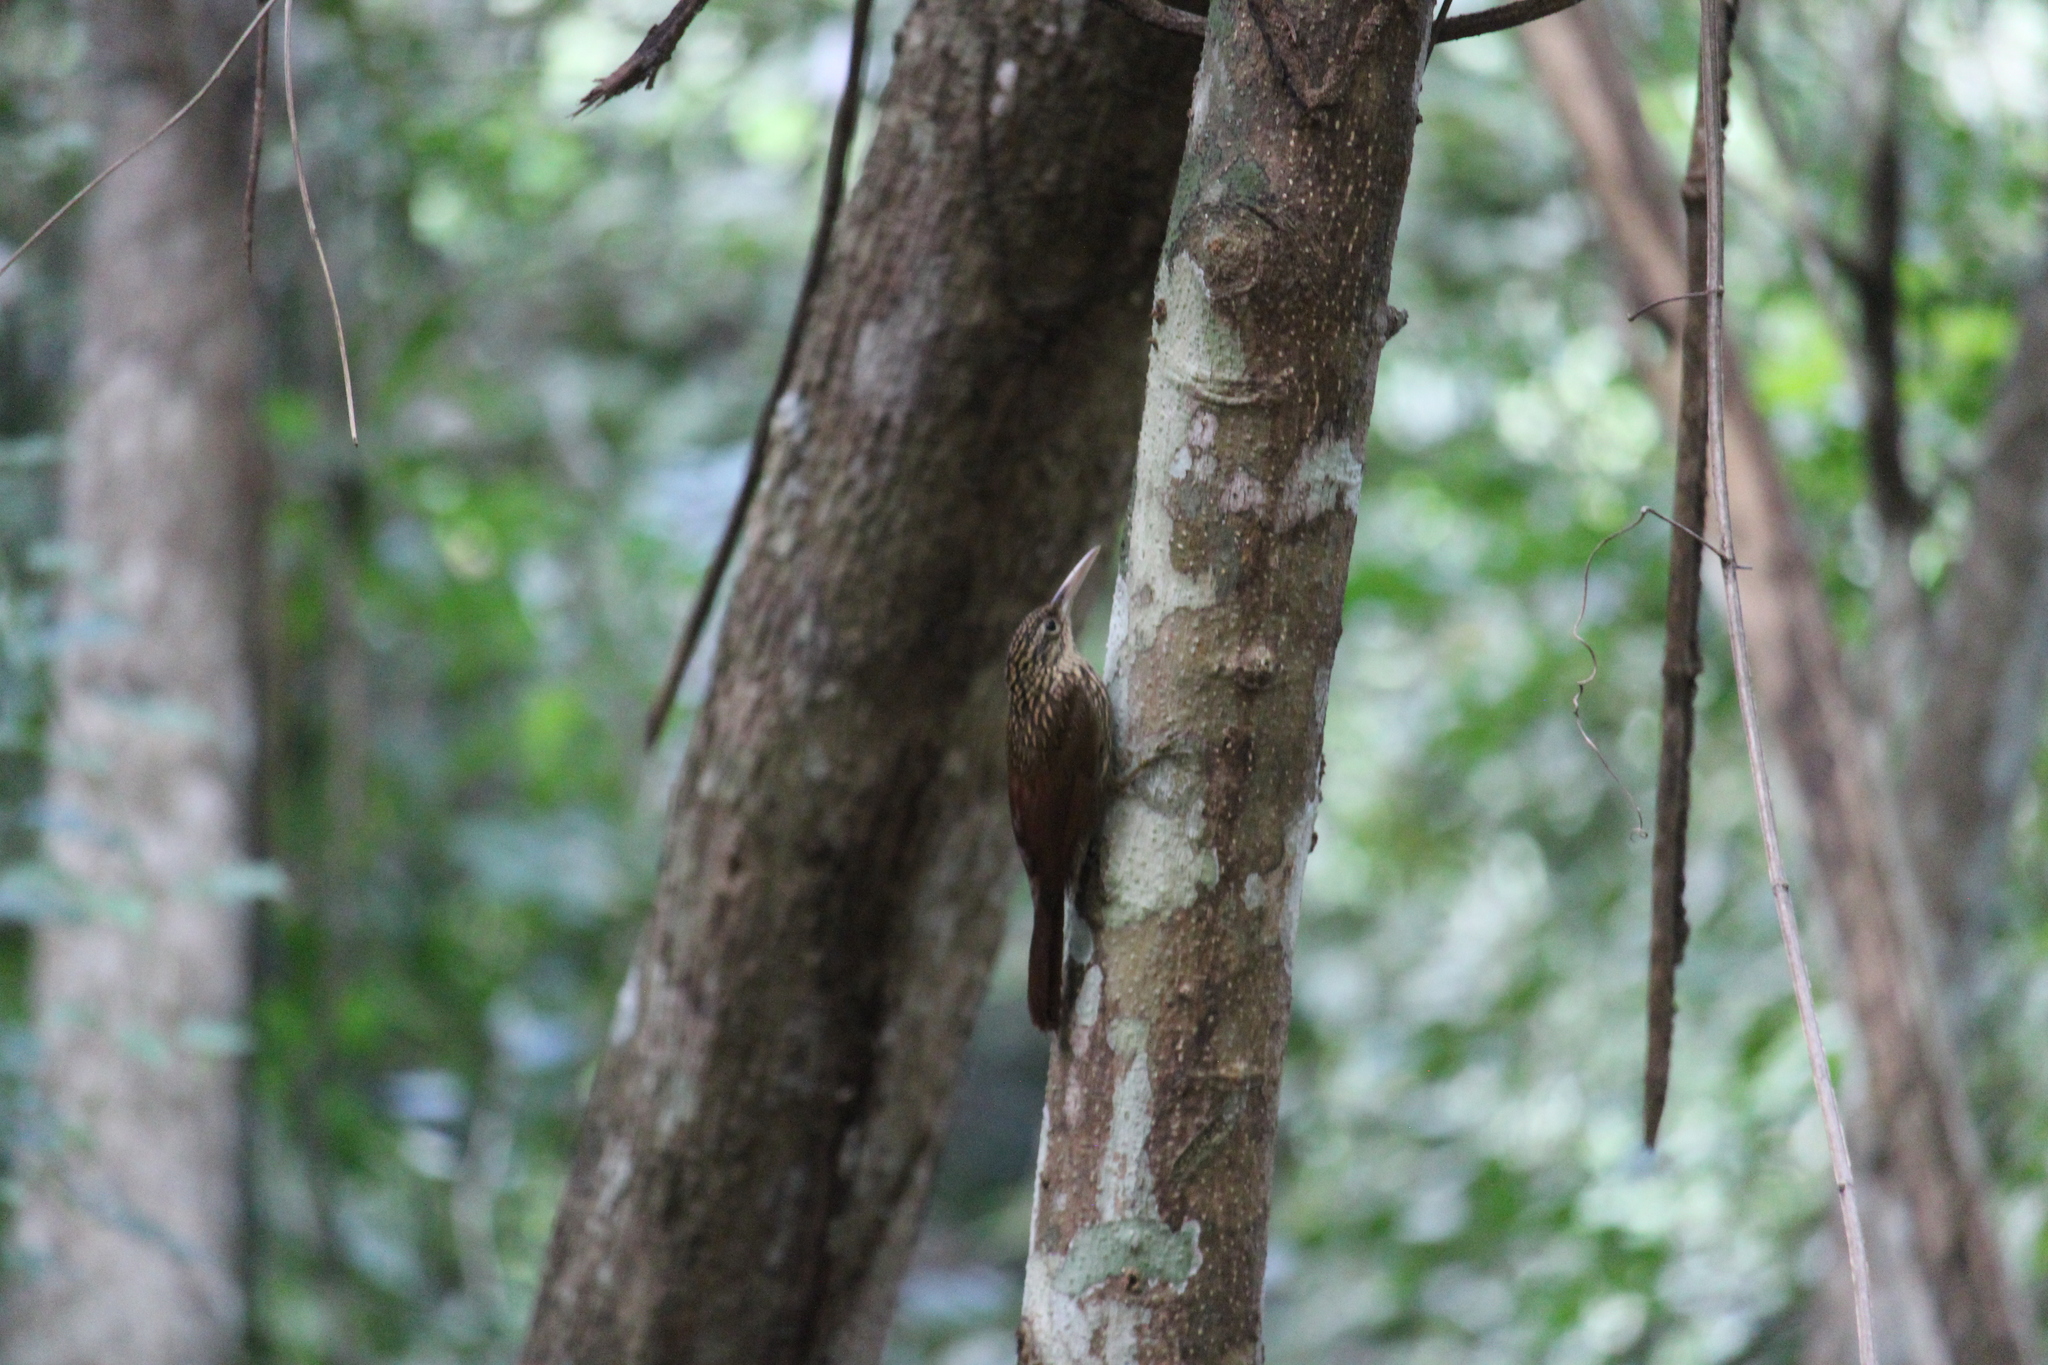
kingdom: Animalia
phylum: Chordata
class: Aves
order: Passeriformes
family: Furnariidae
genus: Xiphorhynchus
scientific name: Xiphorhynchus flavigaster
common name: Ivory-billed woodcreeper
